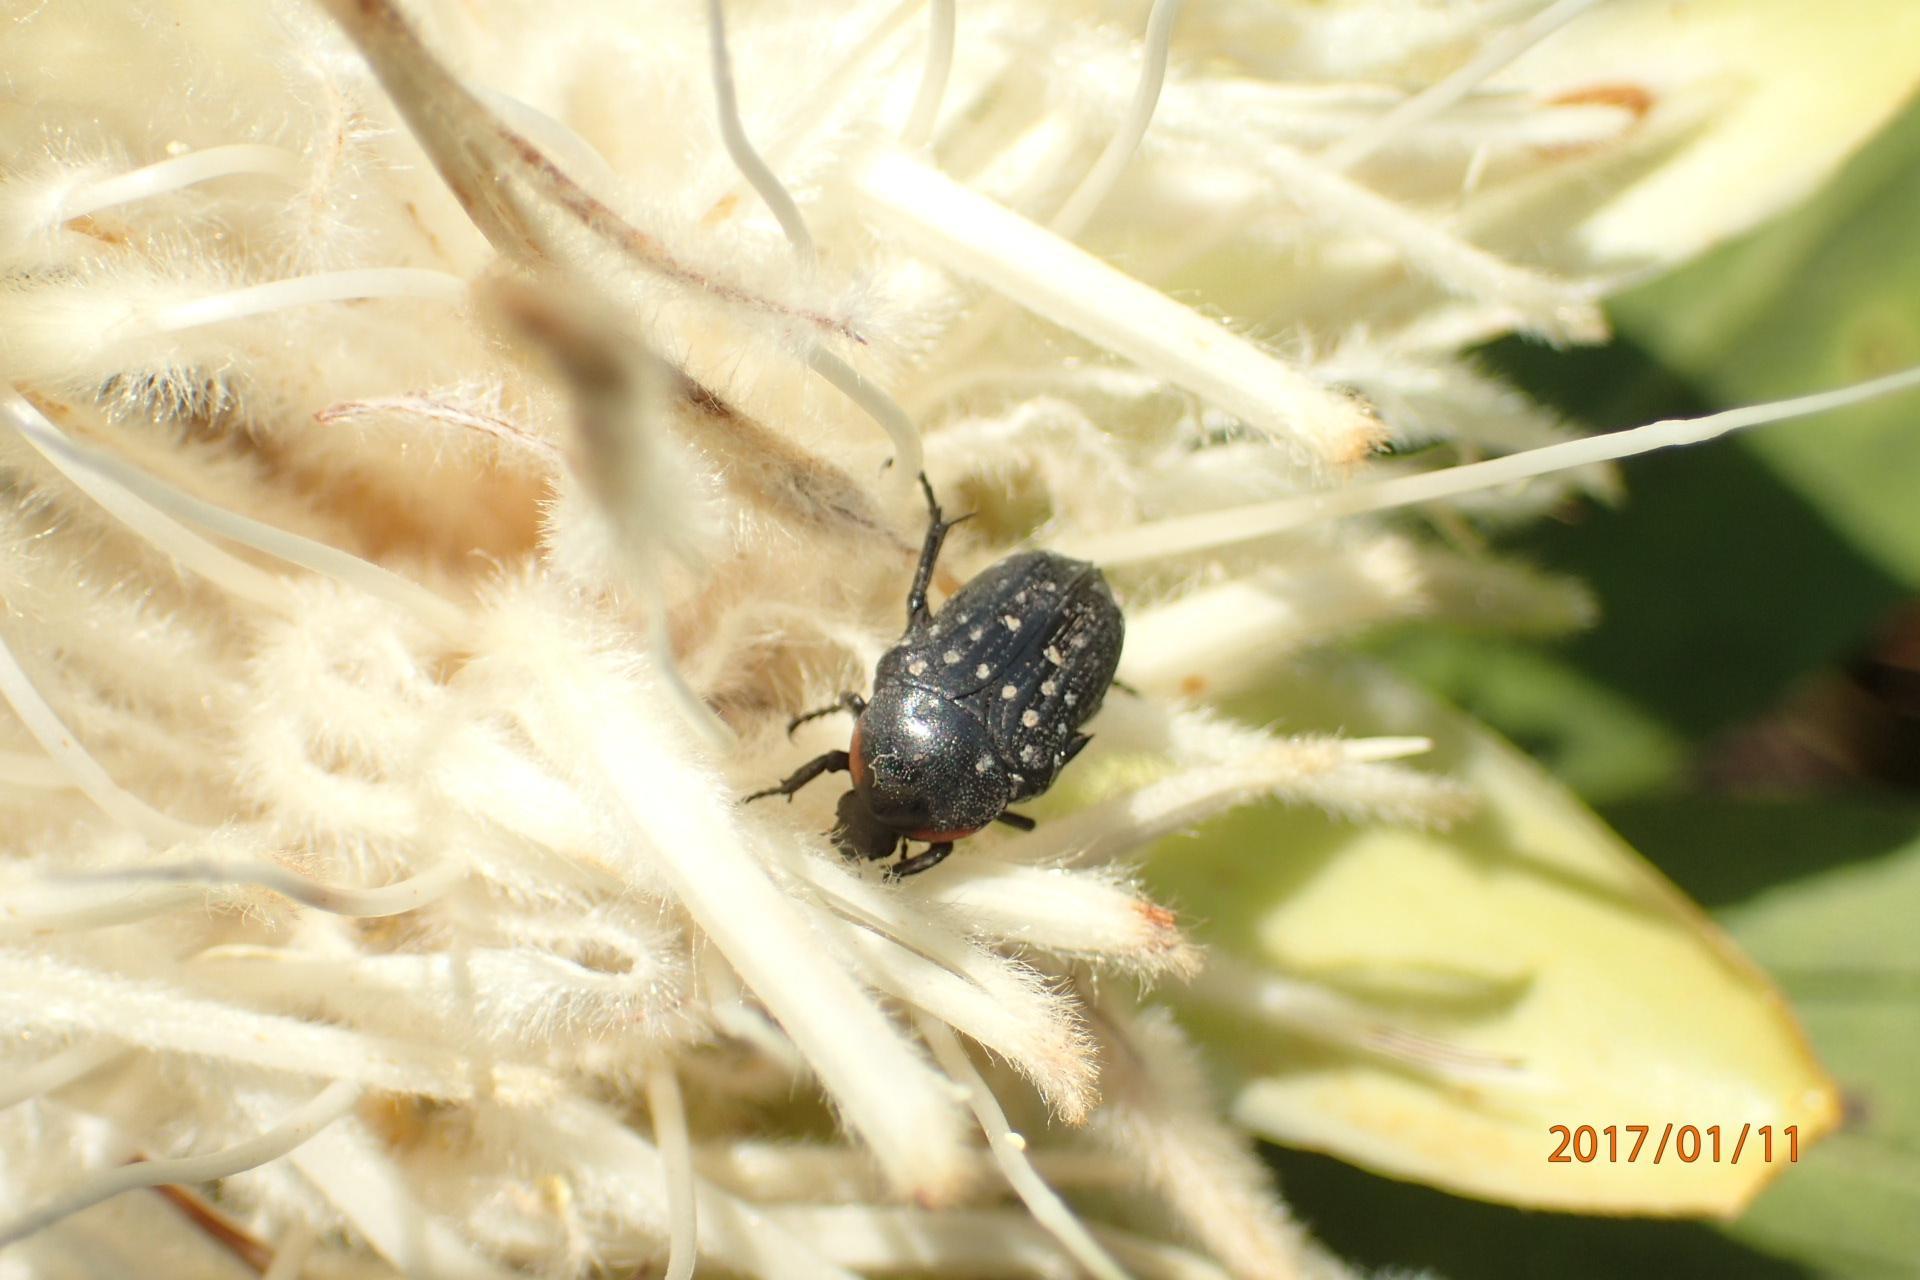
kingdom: Plantae
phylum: Tracheophyta
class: Magnoliopsida
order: Proteales
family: Proteaceae
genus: Protea
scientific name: Protea welwitschii
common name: Cluster-head protea
